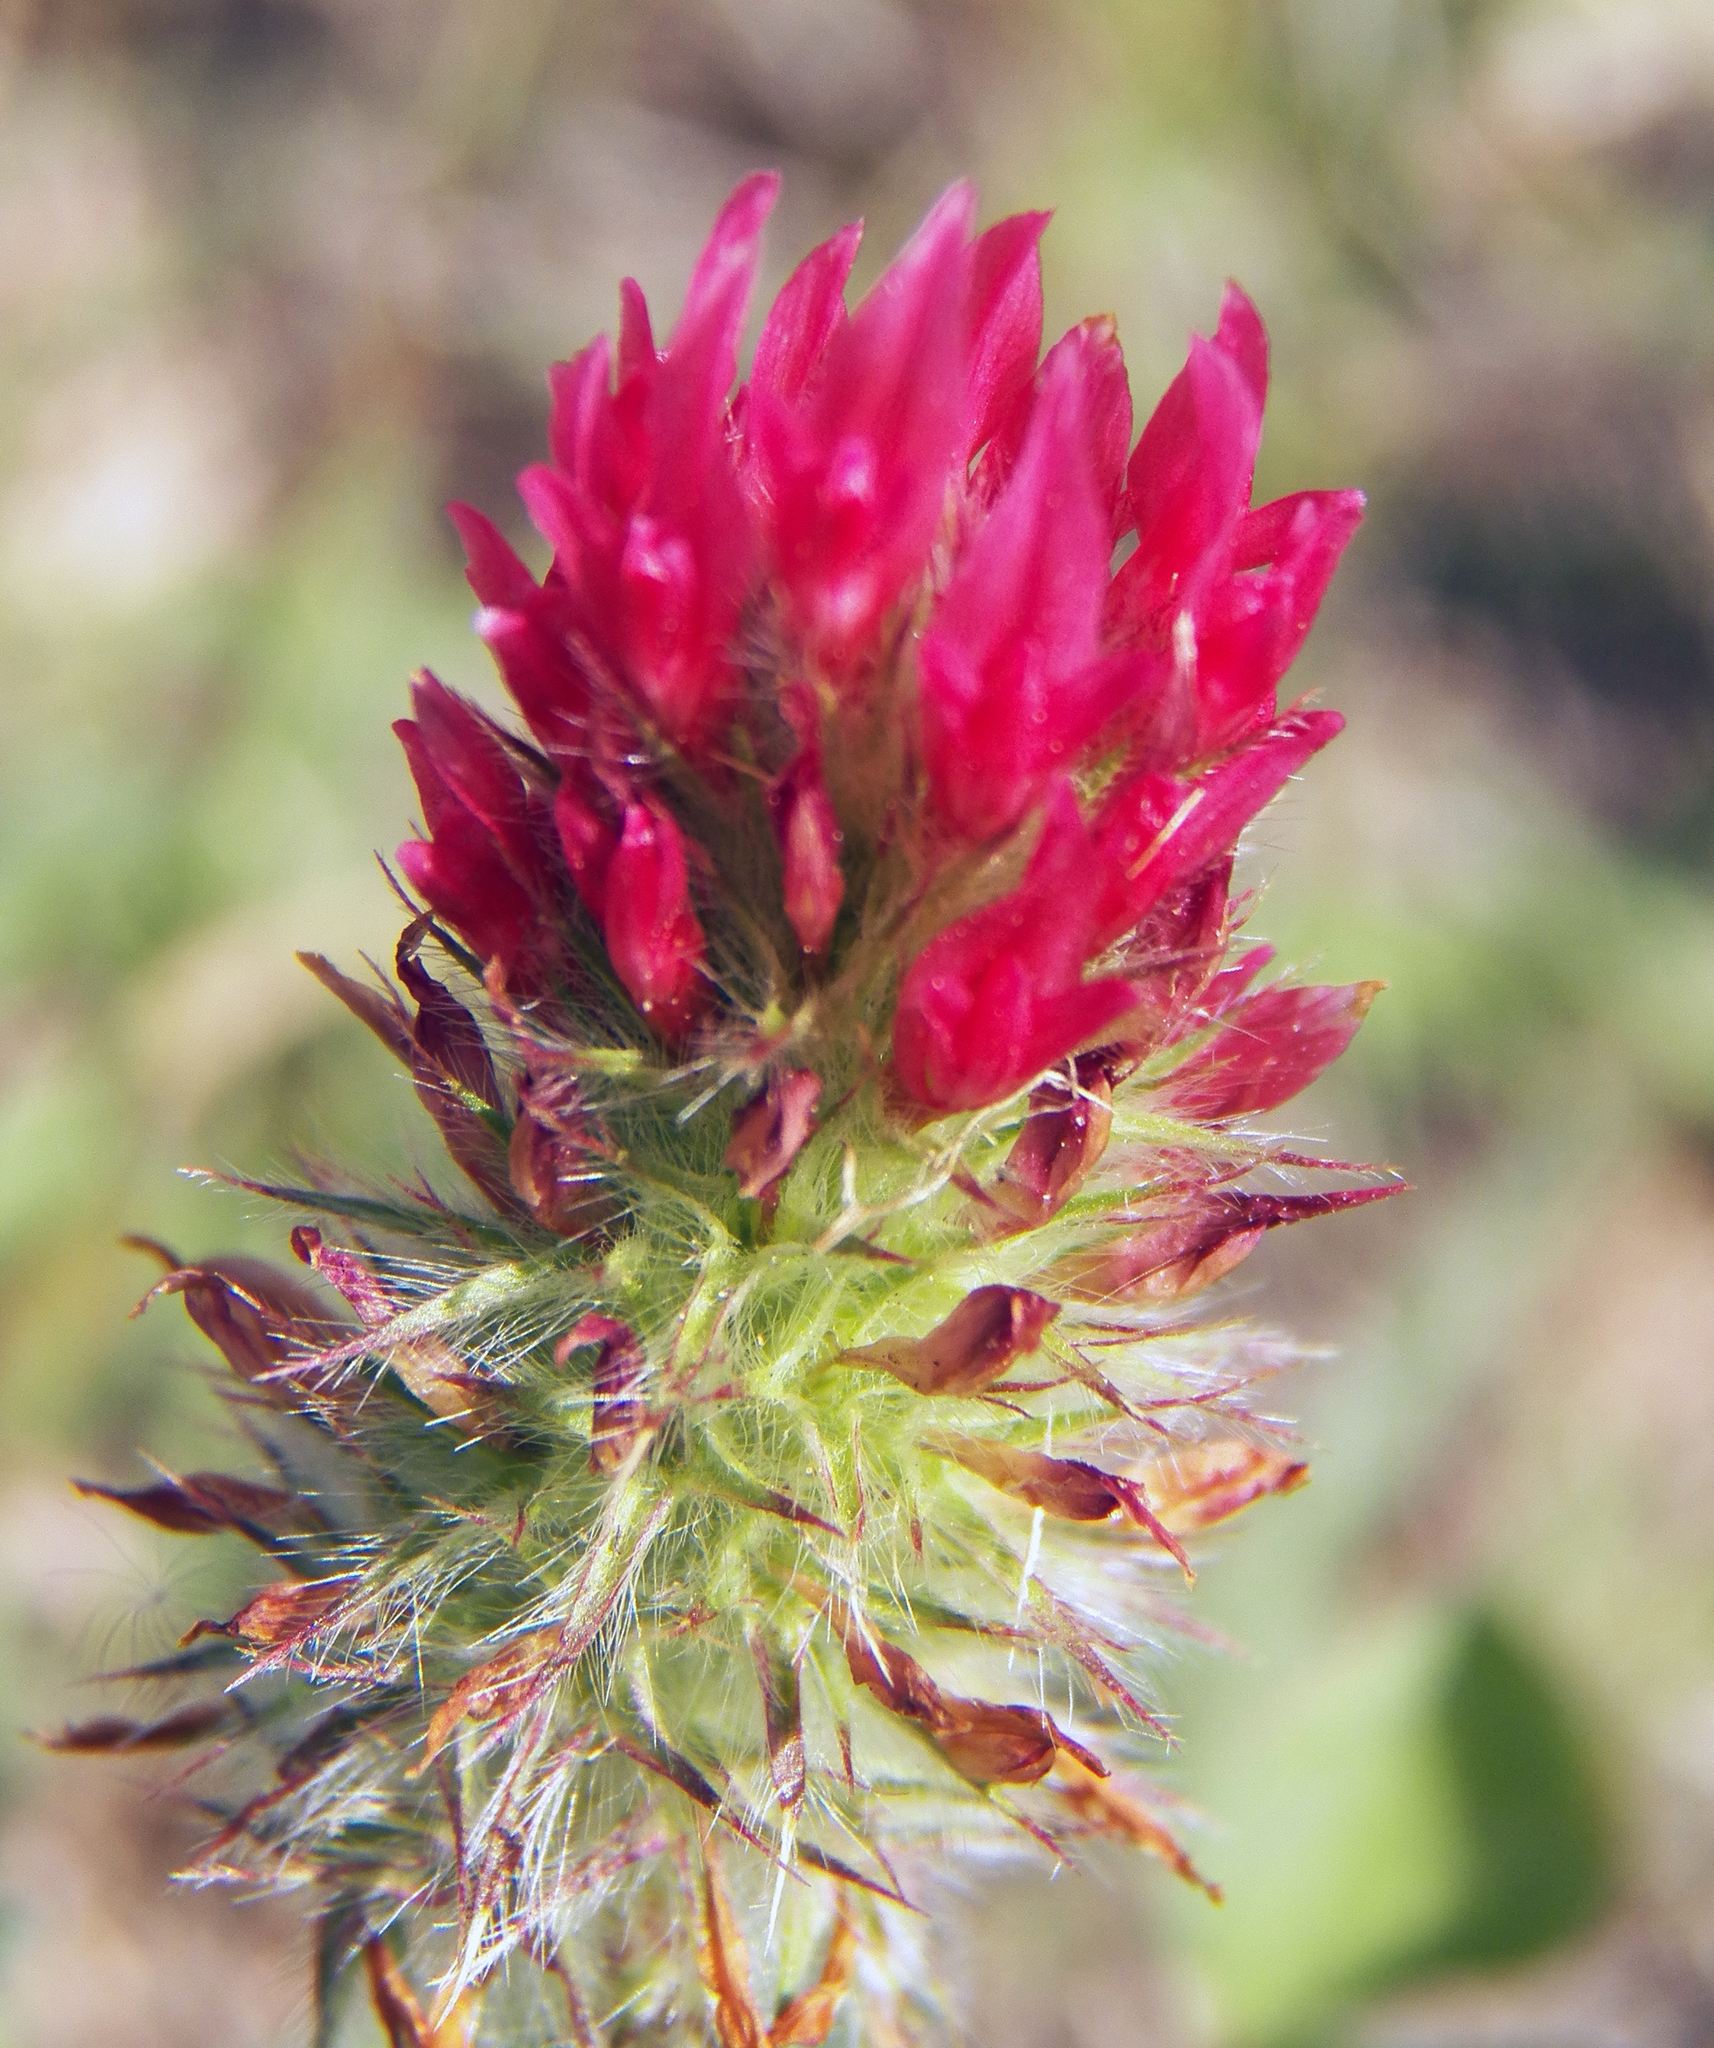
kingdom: Plantae
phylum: Tracheophyta
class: Magnoliopsida
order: Fabales
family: Fabaceae
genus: Trifolium
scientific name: Trifolium incarnatum
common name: Crimson clover
